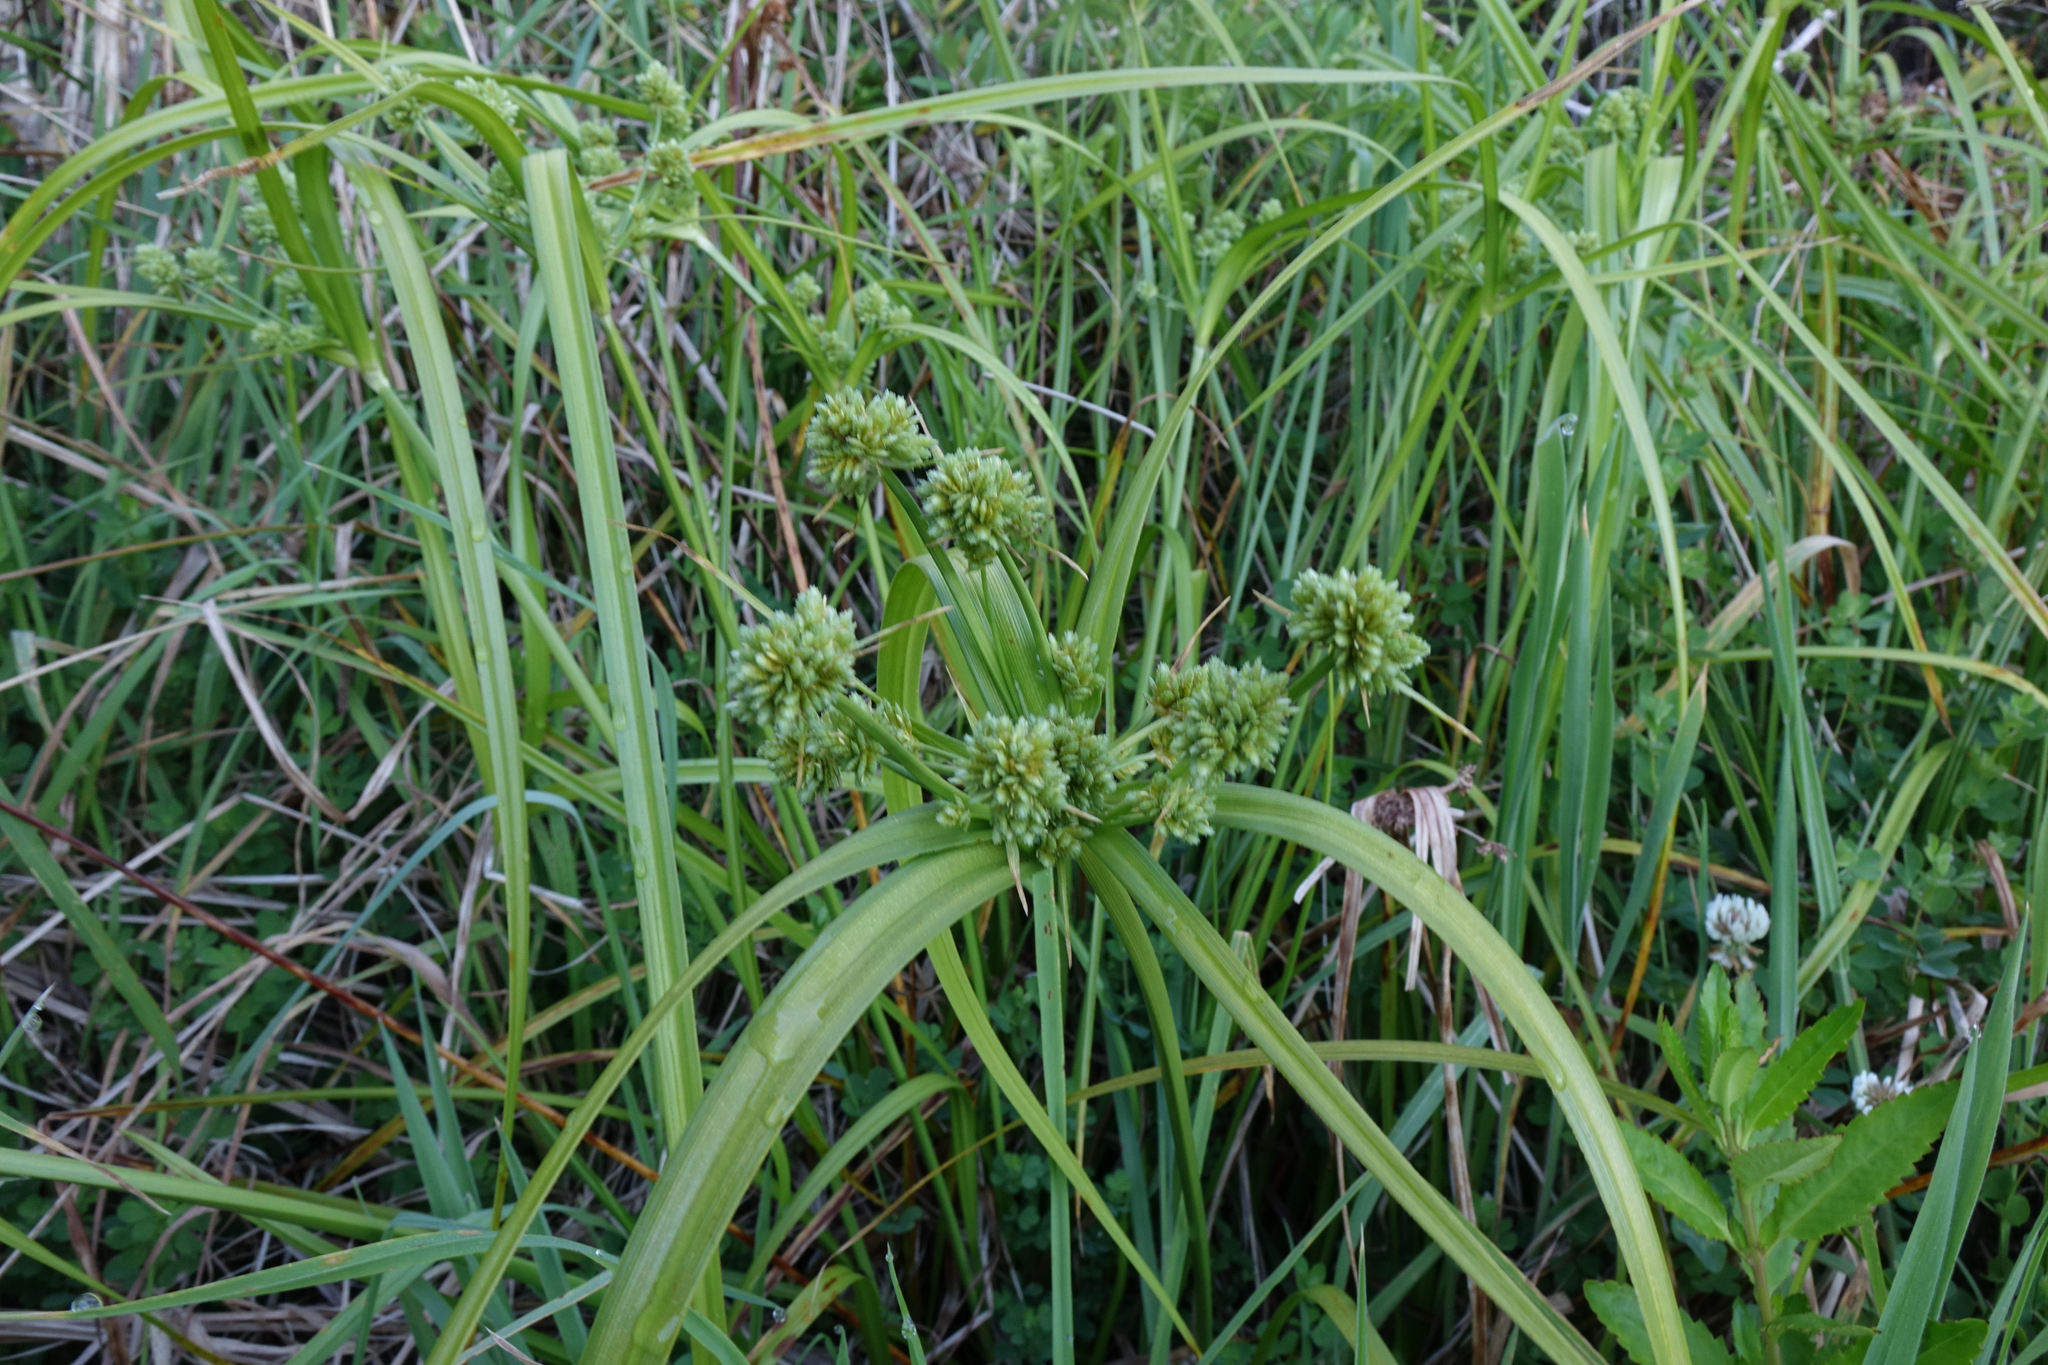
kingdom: Plantae
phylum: Tracheophyta
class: Liliopsida
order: Poales
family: Cyperaceae
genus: Cyperus
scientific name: Cyperus eragrostis
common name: Tall flatsedge
